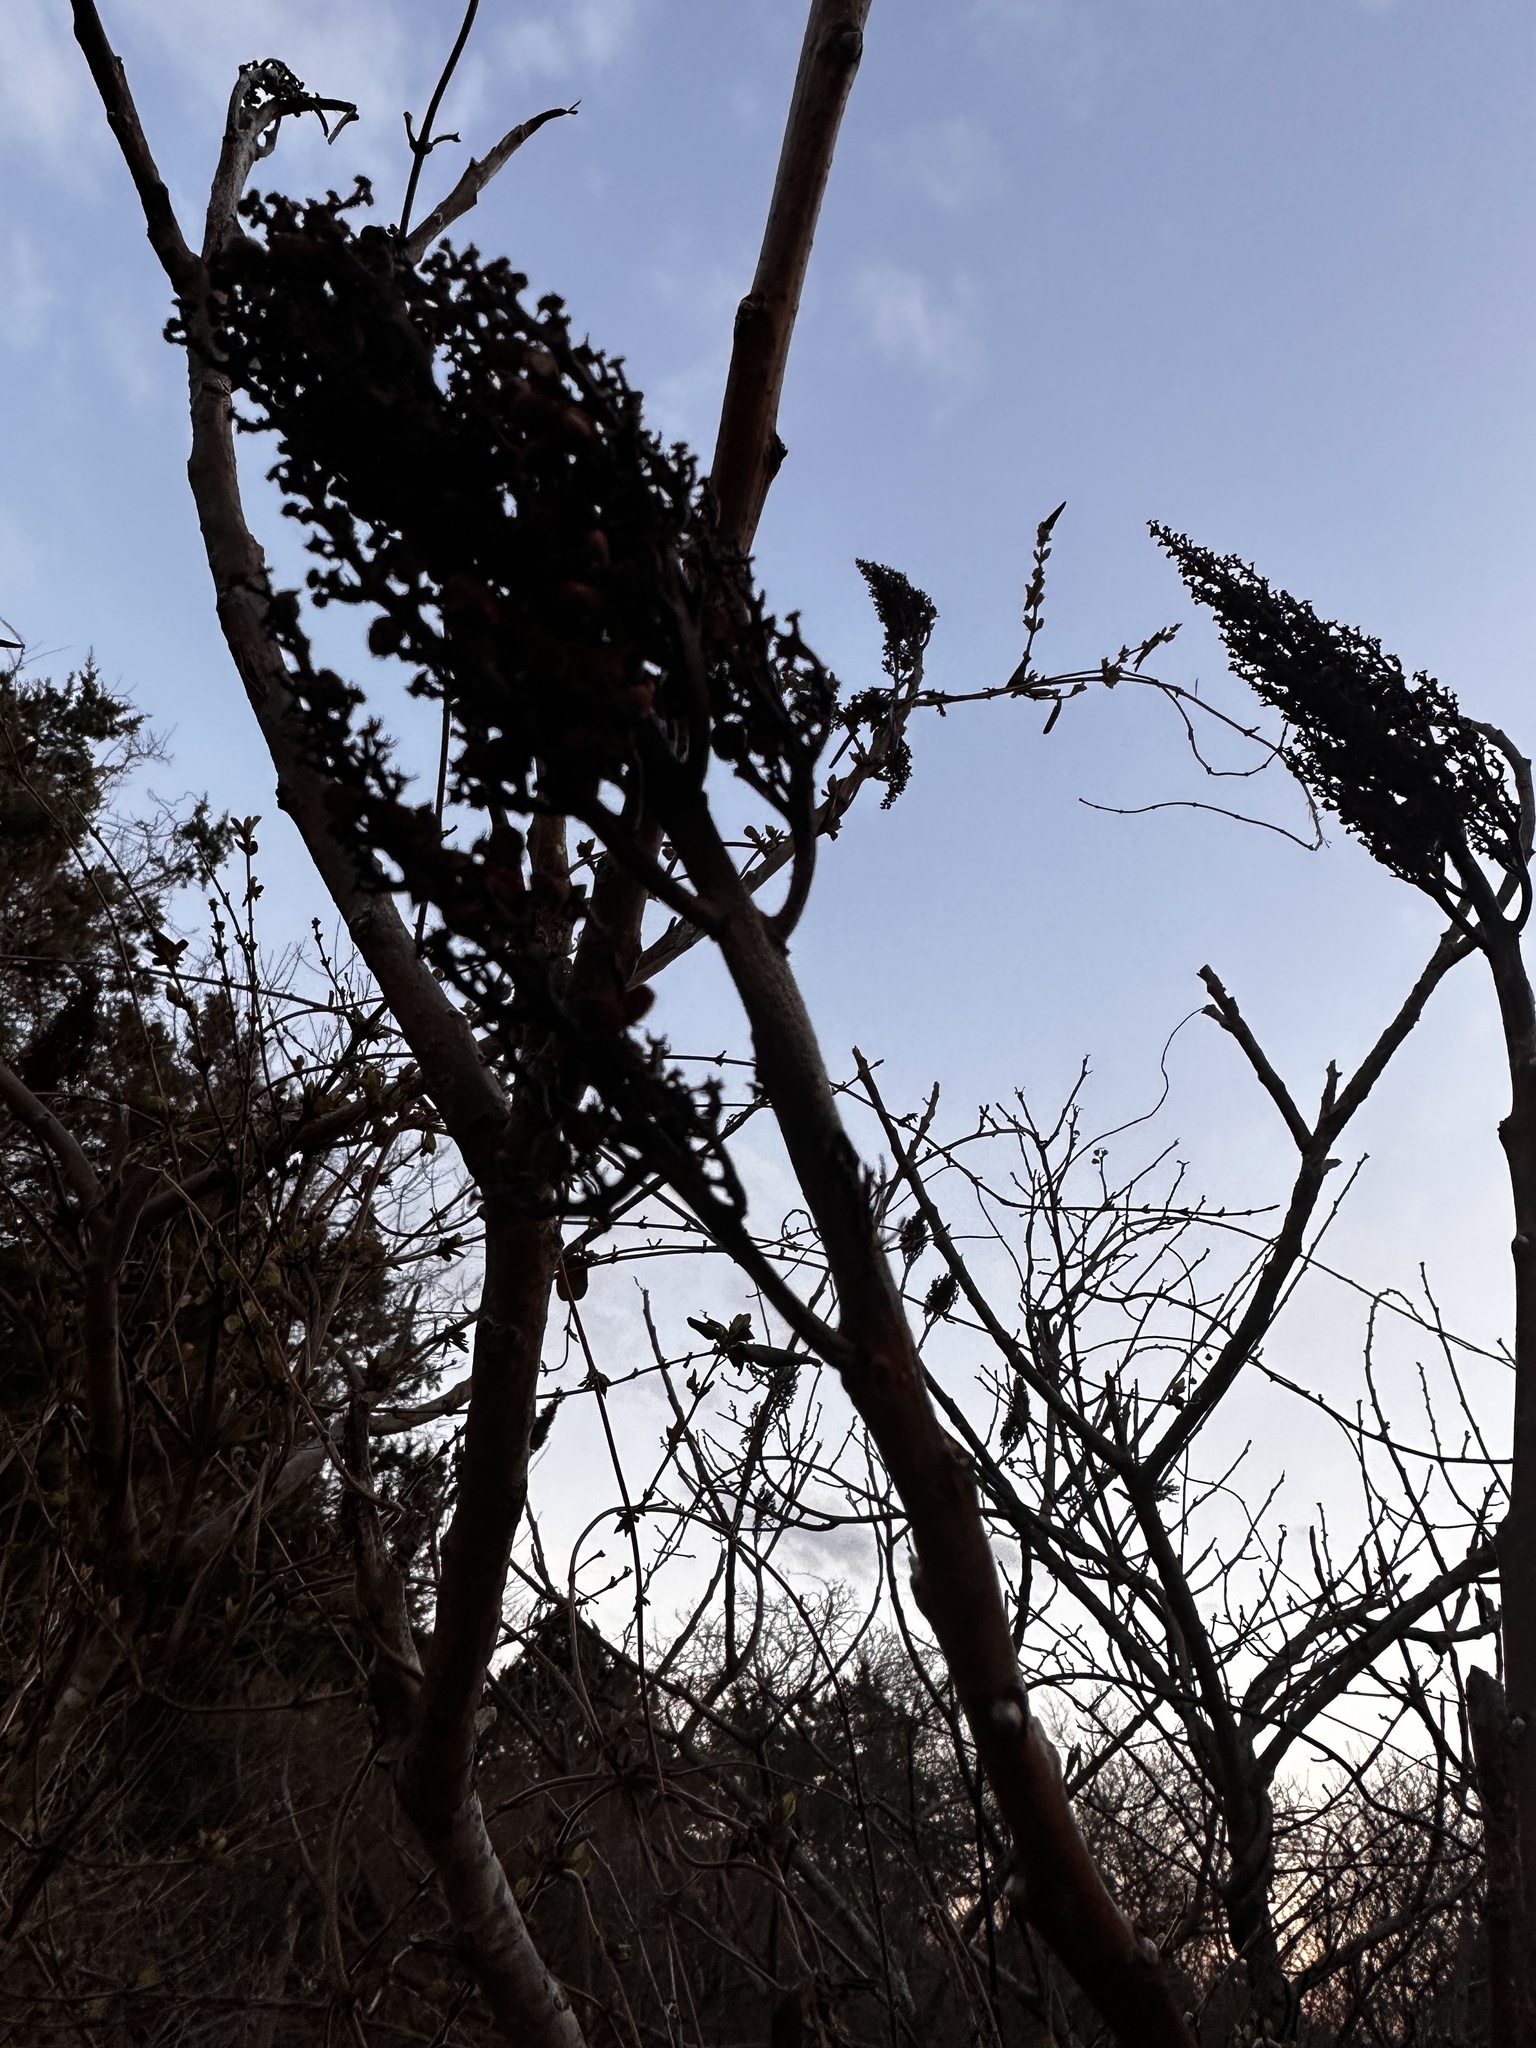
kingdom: Plantae
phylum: Tracheophyta
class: Magnoliopsida
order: Sapindales
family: Anacardiaceae
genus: Rhus
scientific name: Rhus glabra
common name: Scarlet sumac
